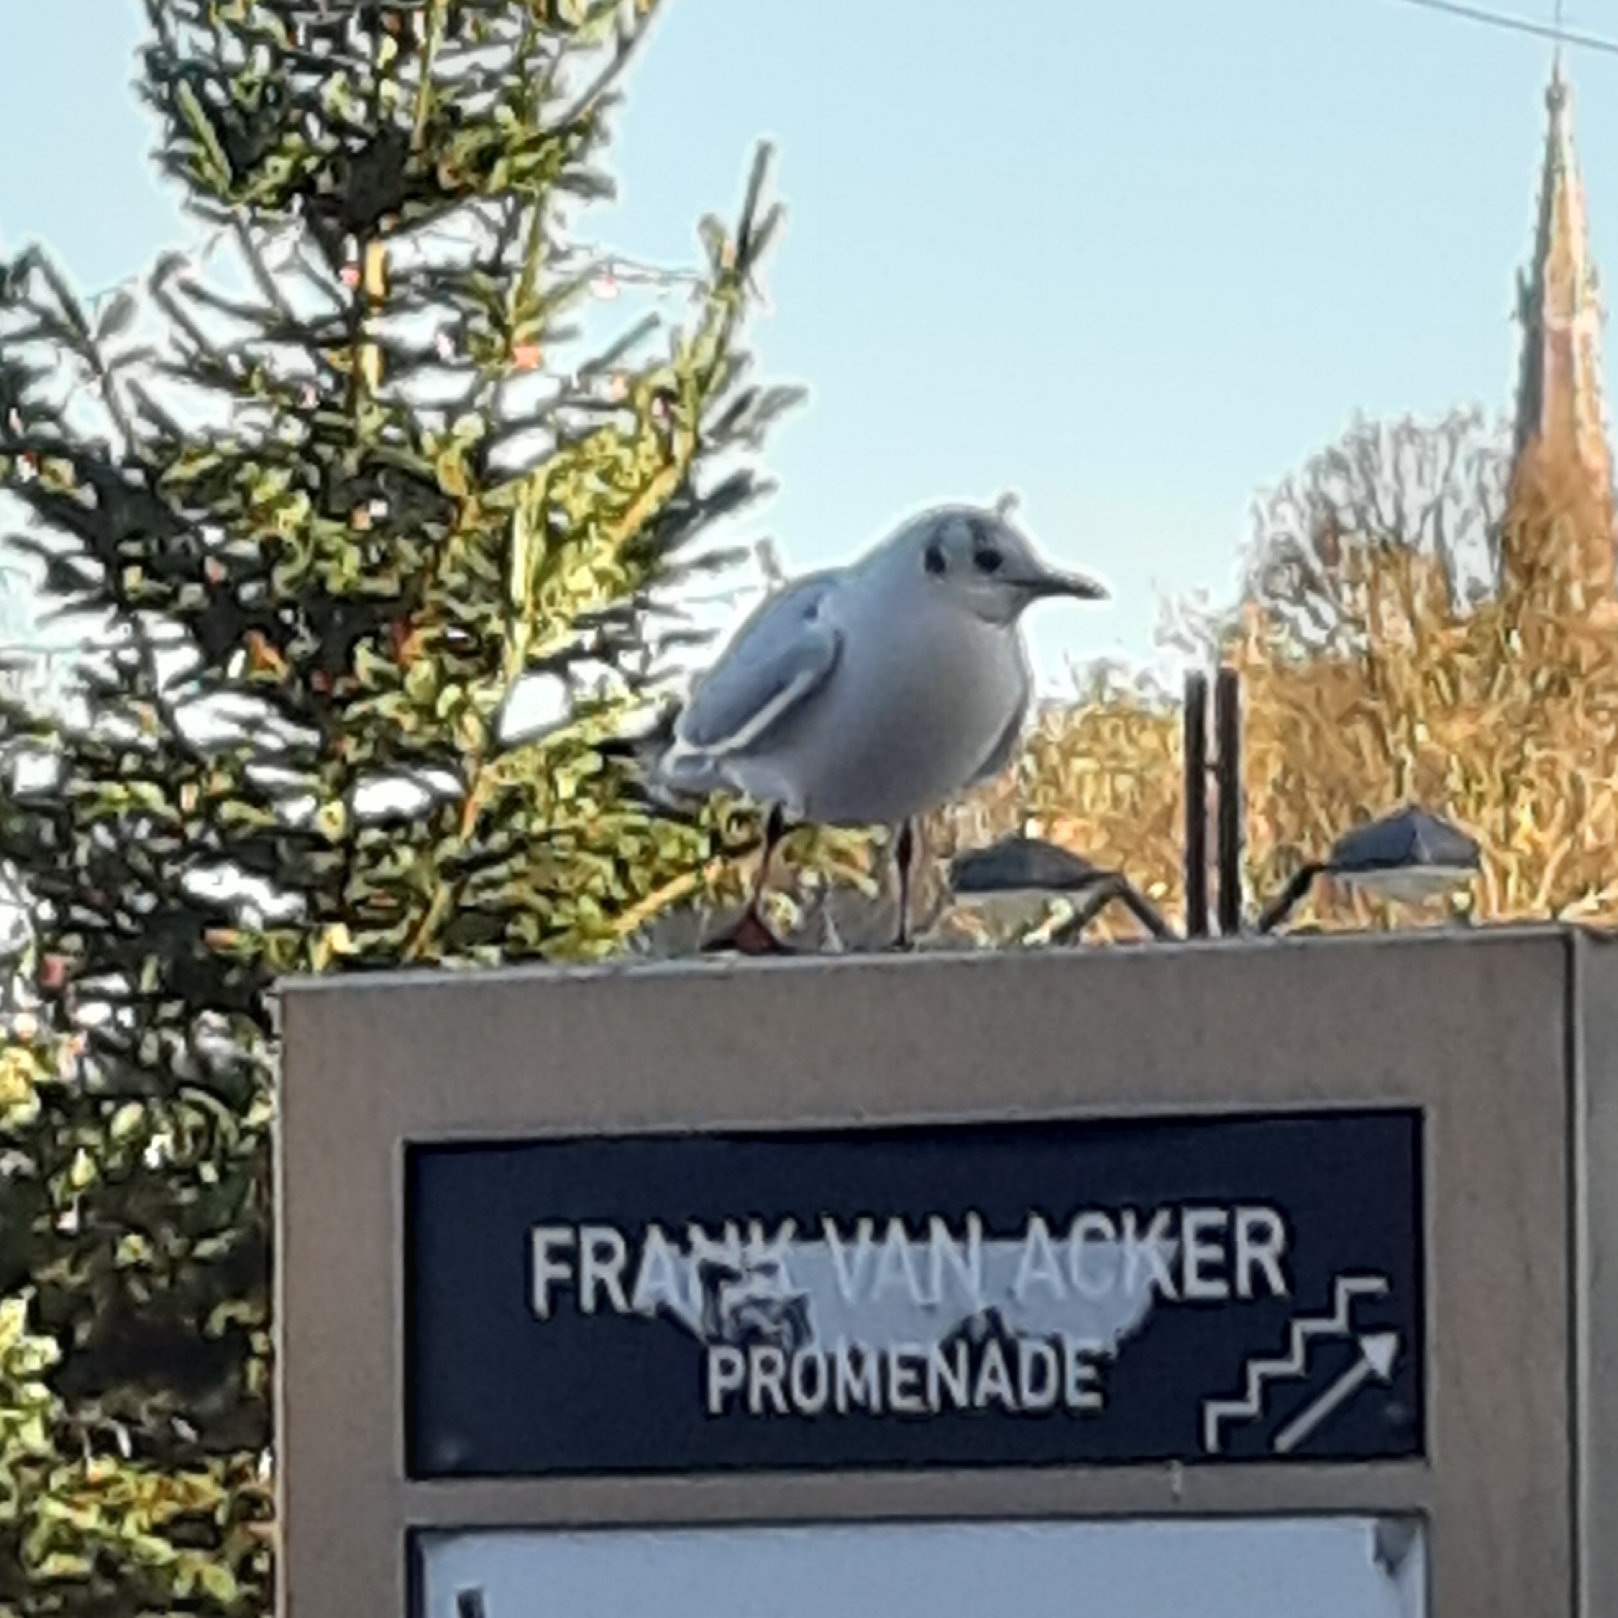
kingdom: Animalia
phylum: Chordata
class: Aves
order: Charadriiformes
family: Laridae
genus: Chroicocephalus
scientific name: Chroicocephalus ridibundus
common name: Black-headed gull
